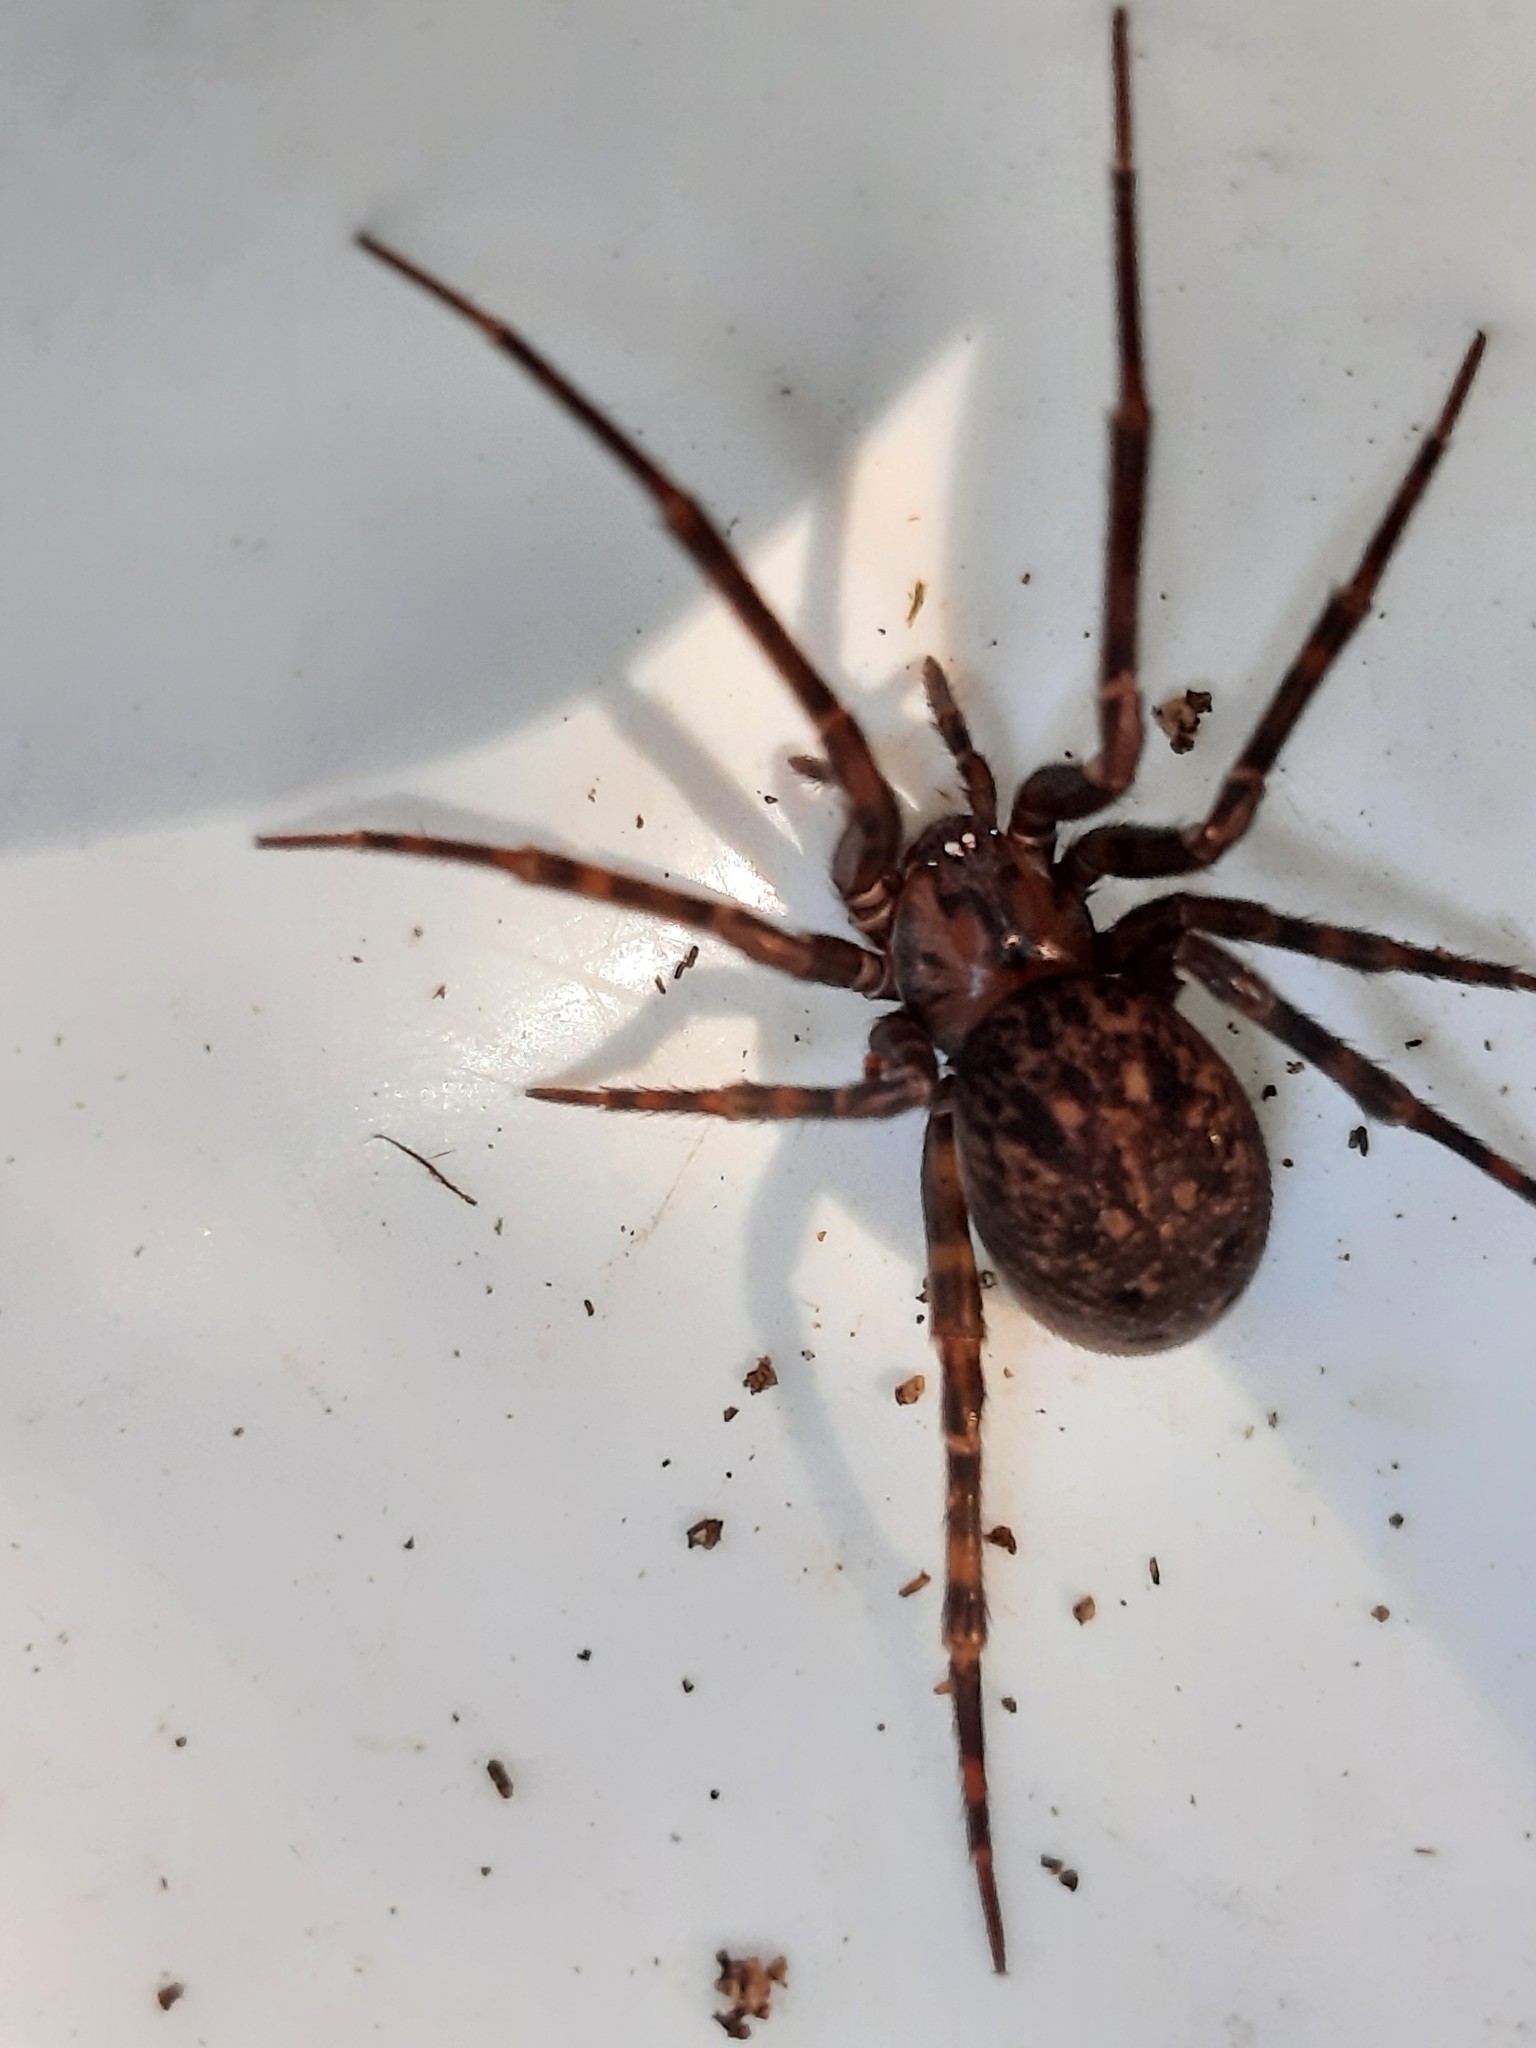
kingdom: Animalia
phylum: Arthropoda
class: Arachnida
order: Araneae
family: Megadictynidae
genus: Megadictyna
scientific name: Megadictyna thilenii
